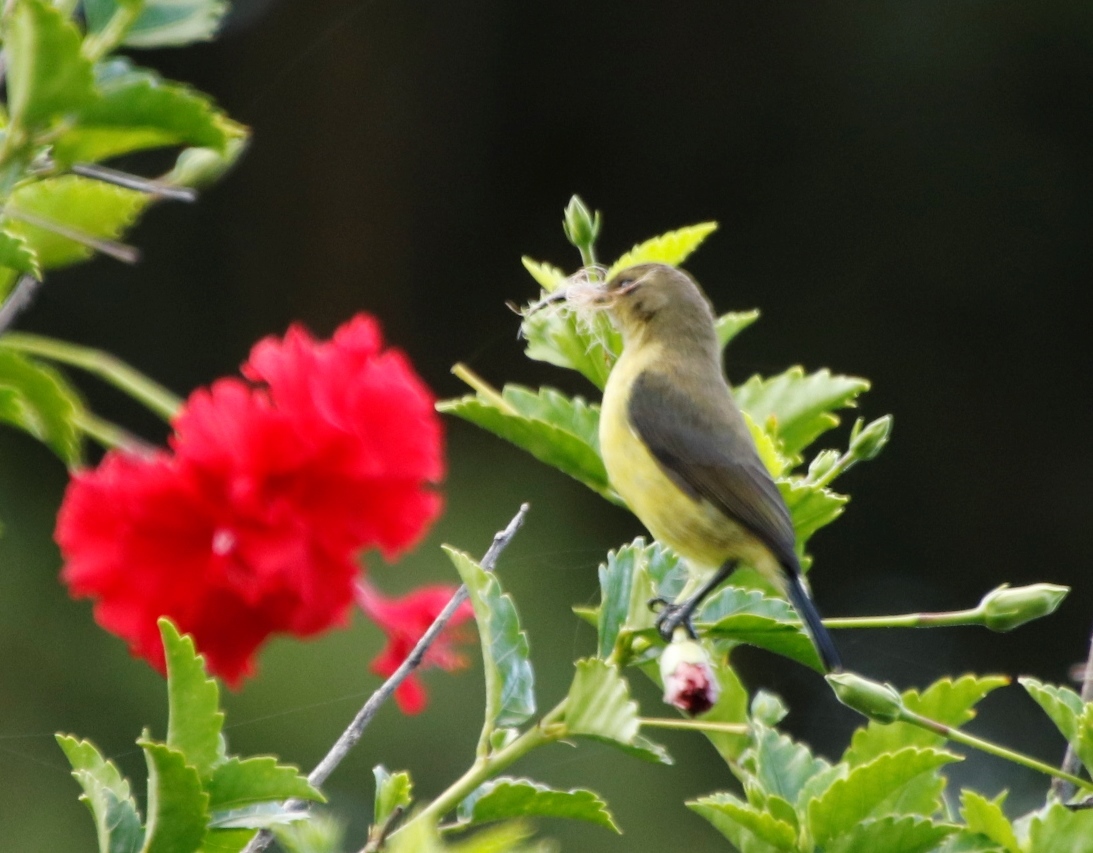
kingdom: Animalia
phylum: Chordata
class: Aves
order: Passeriformes
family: Nectariniidae
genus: Cinnyris
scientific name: Cinnyris venustus
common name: Variable sunbird
